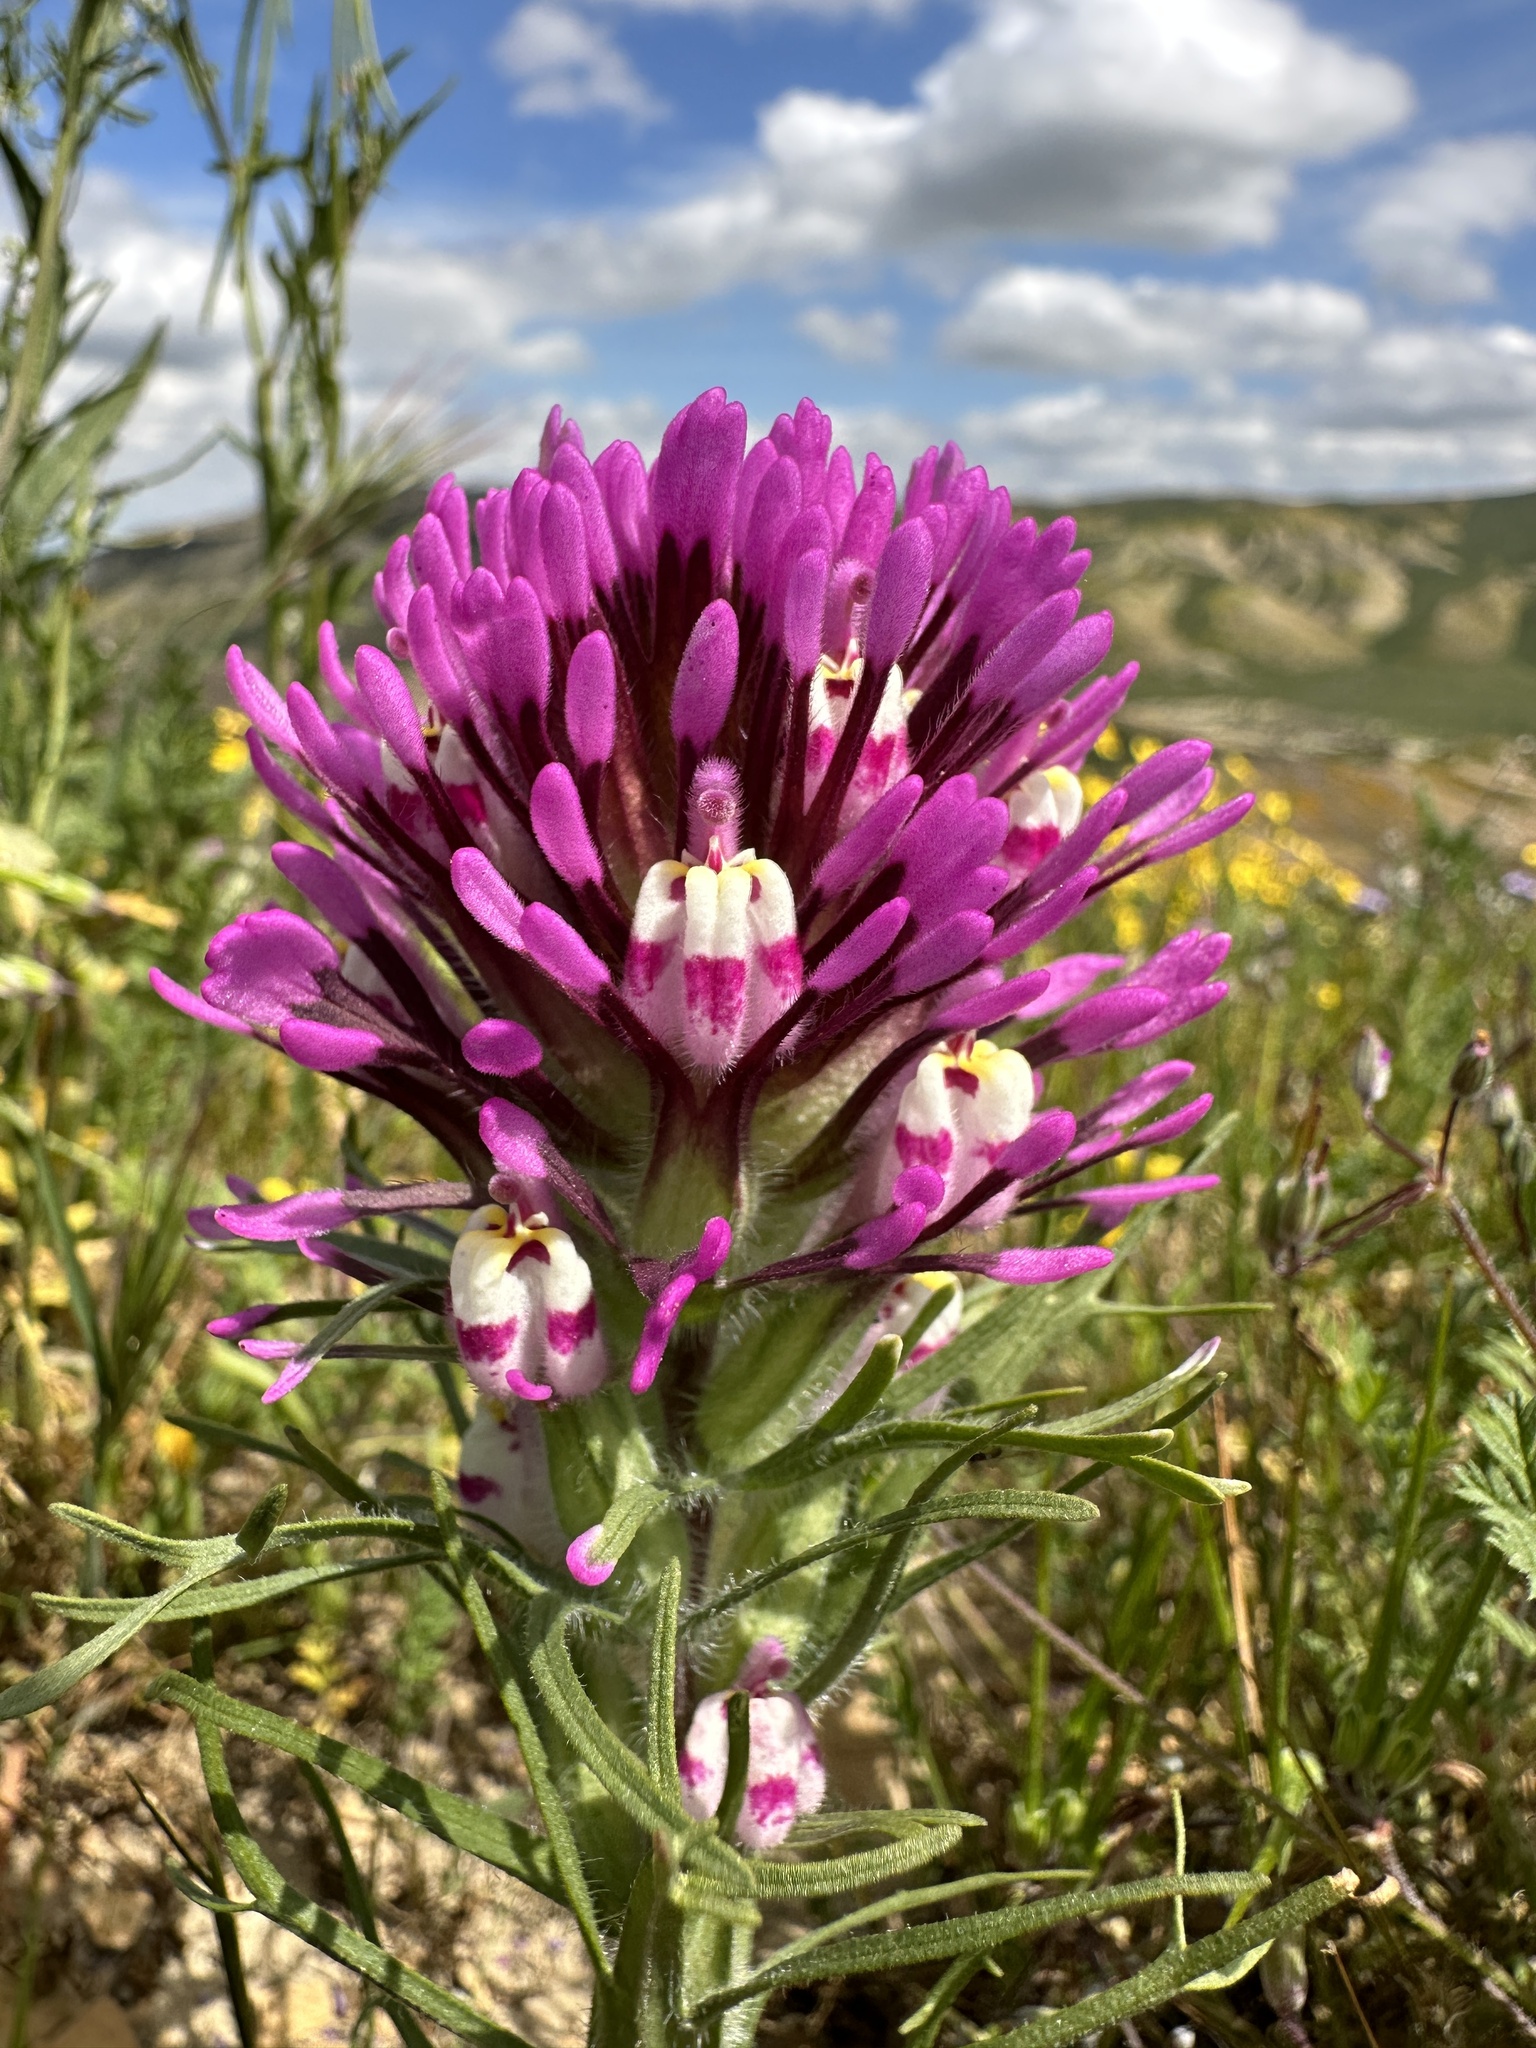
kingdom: Plantae
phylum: Tracheophyta
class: Magnoliopsida
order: Lamiales
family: Orobanchaceae
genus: Castilleja
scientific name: Castilleja exserta
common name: Purple owl-clover
